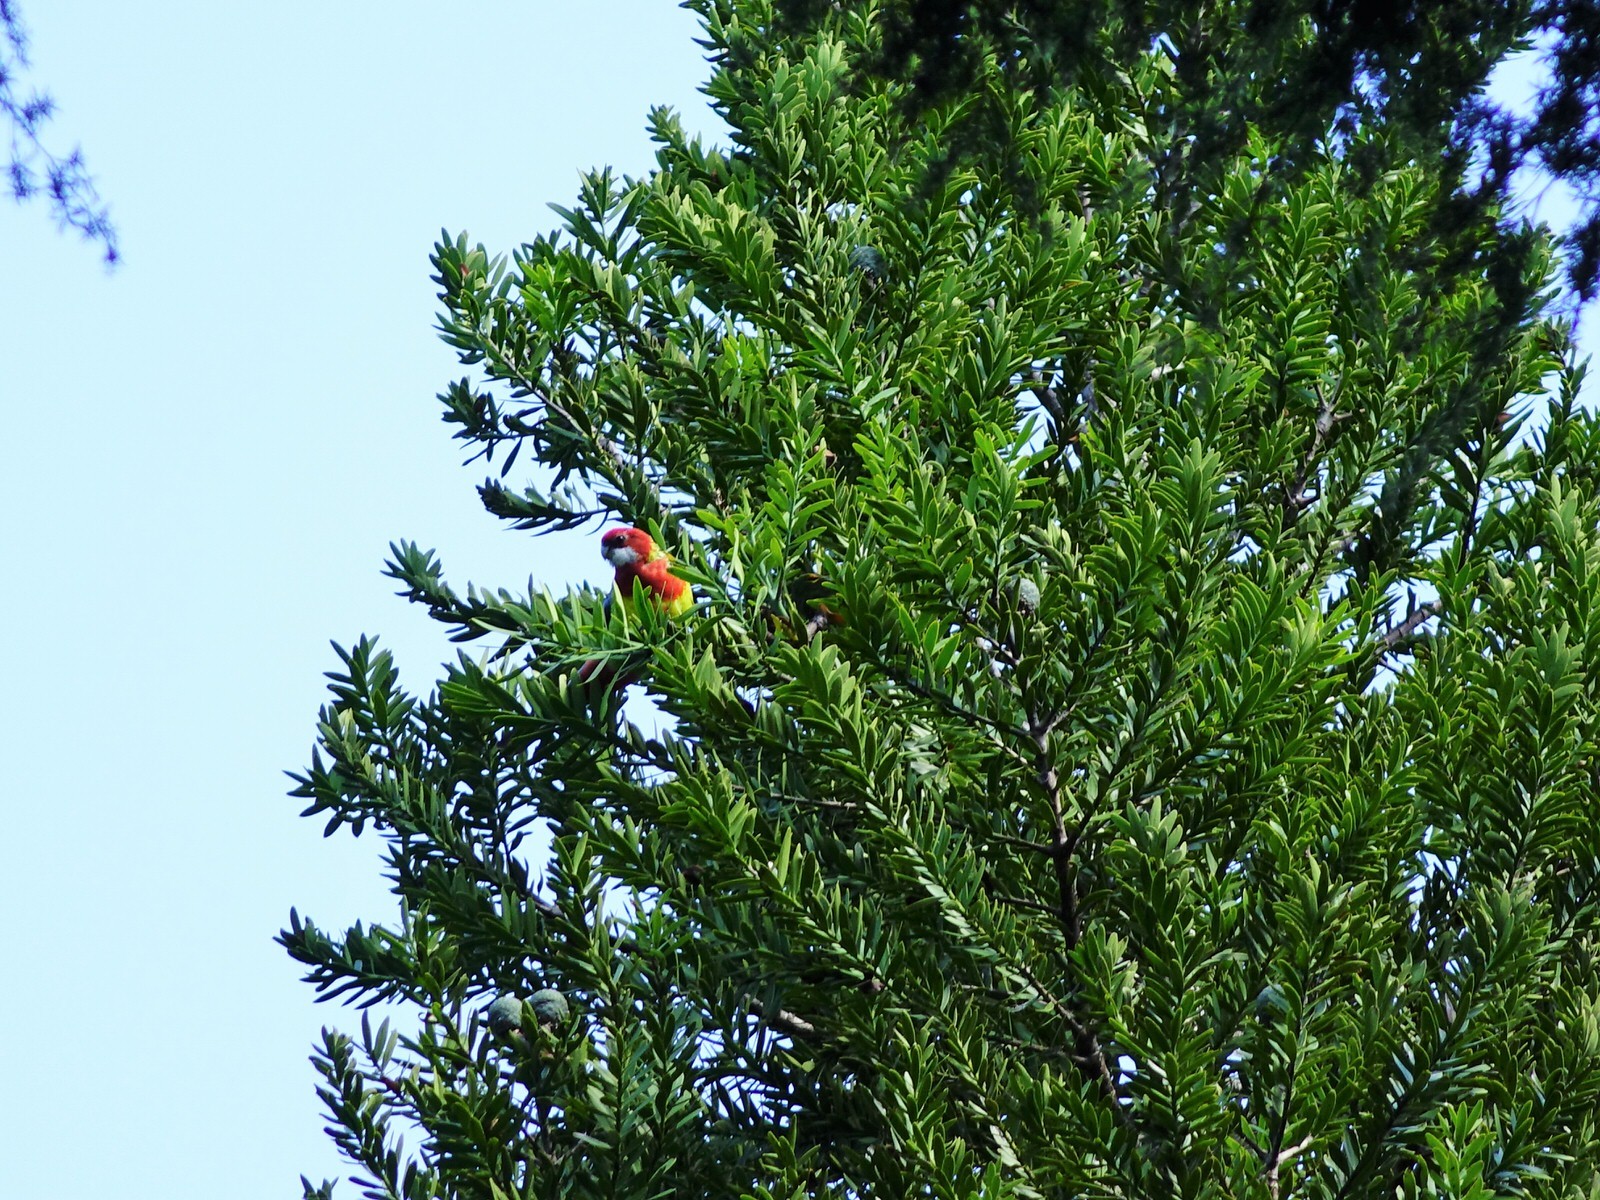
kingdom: Animalia
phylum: Chordata
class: Aves
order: Psittaciformes
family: Psittacidae
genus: Platycercus
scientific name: Platycercus eximius
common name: Eastern rosella
